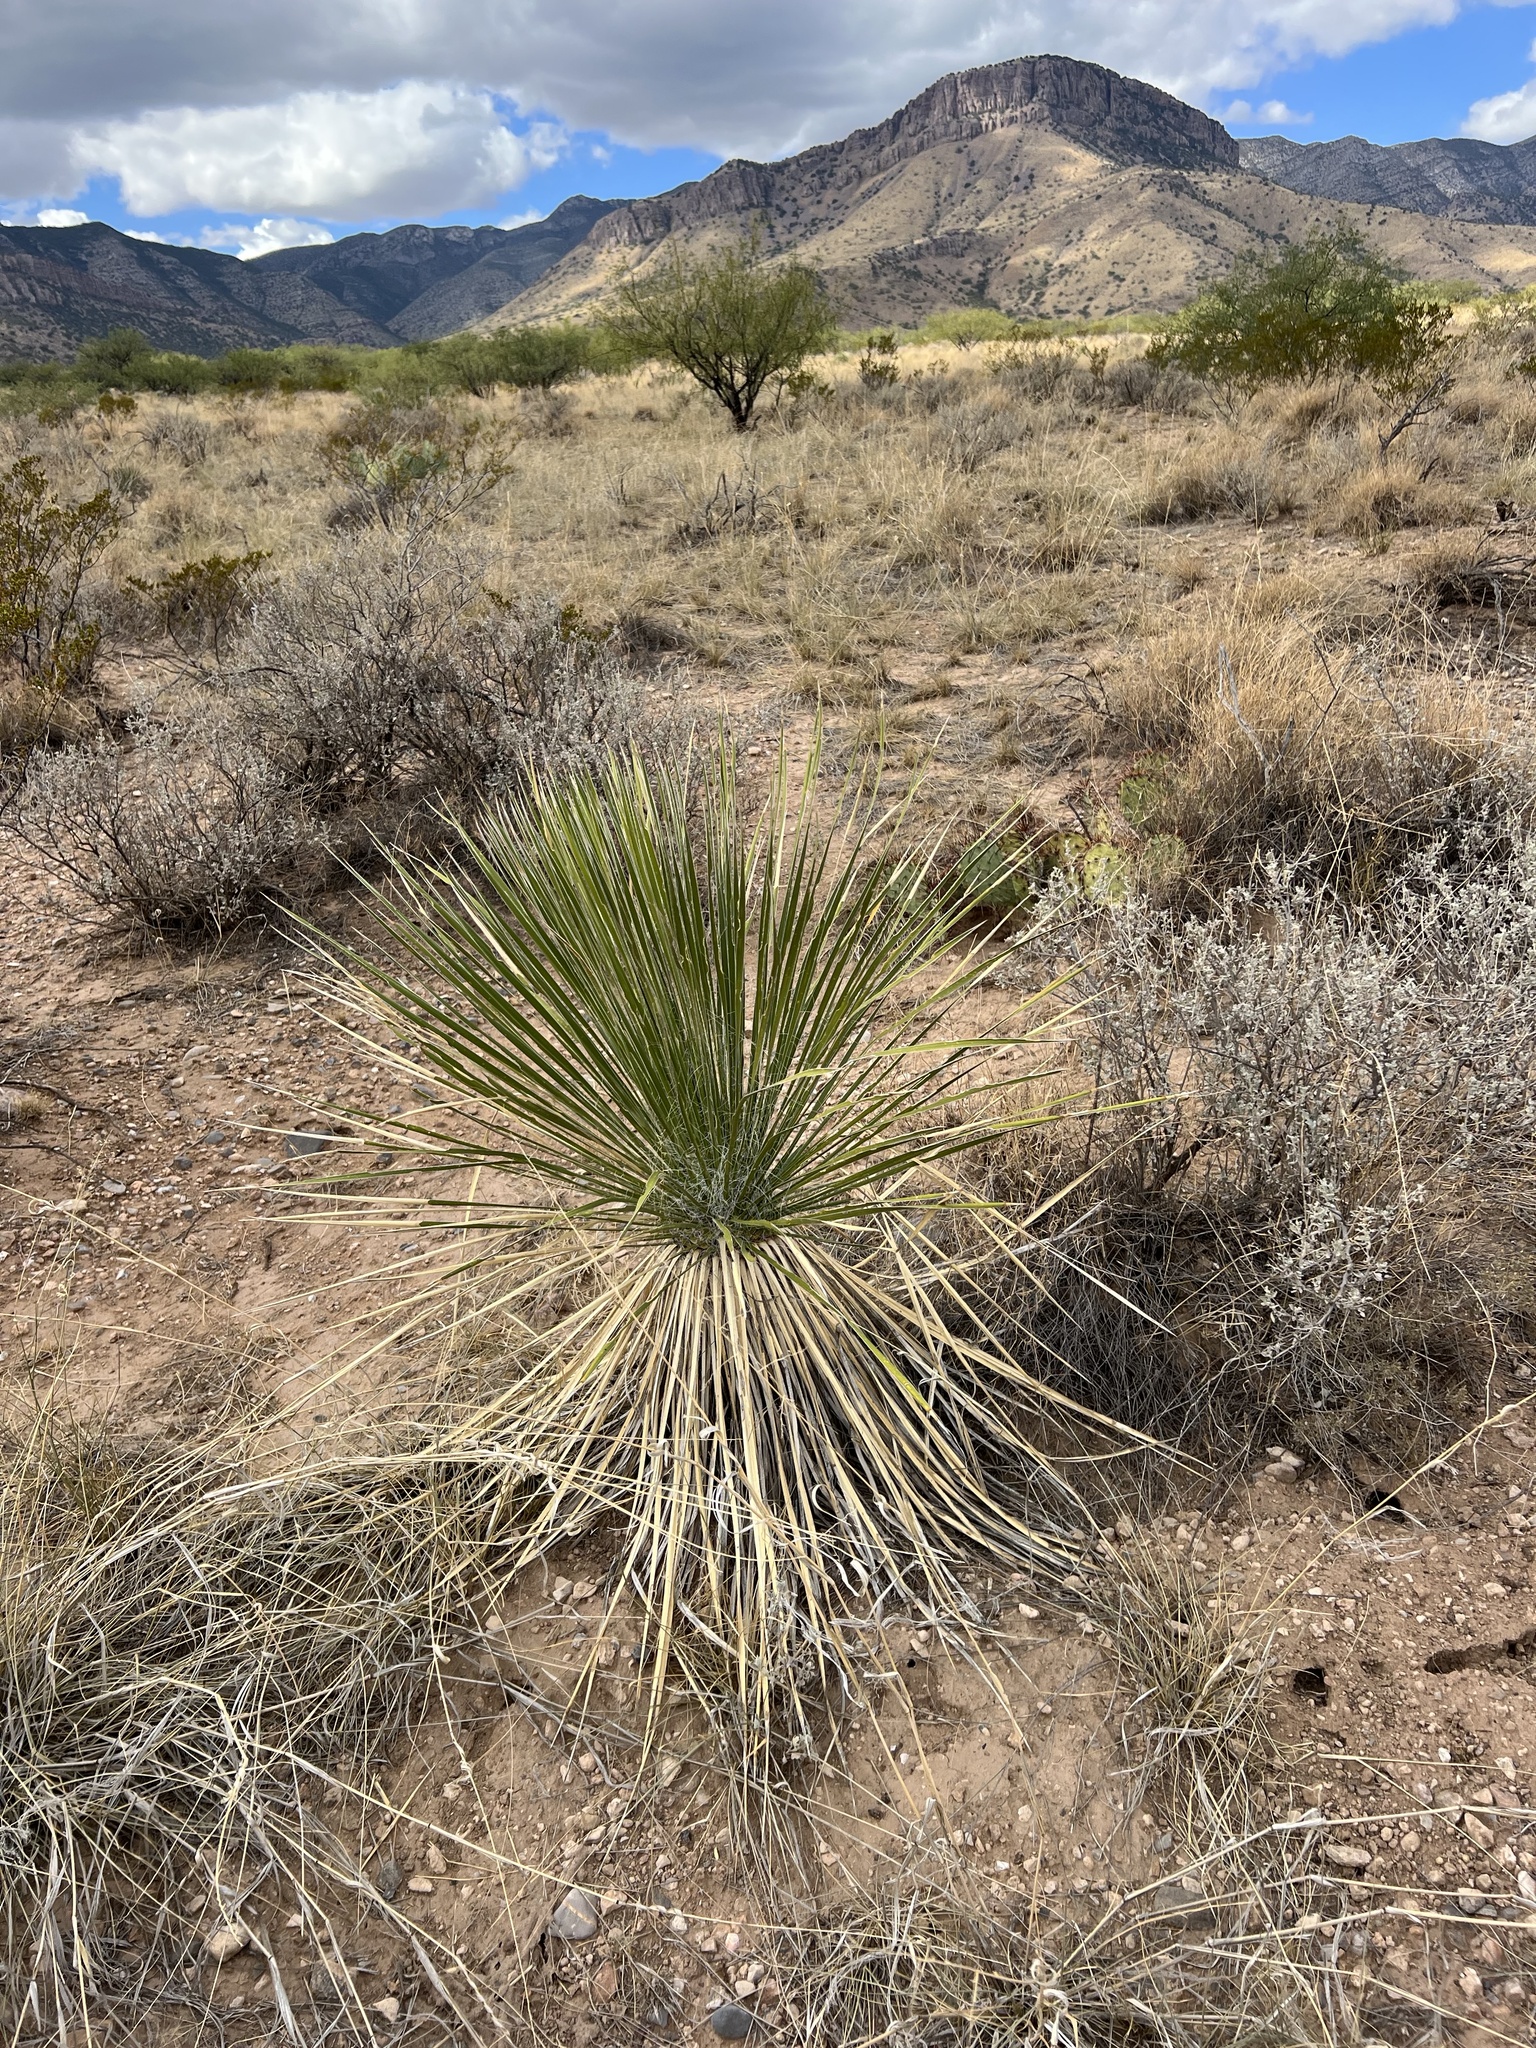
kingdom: Plantae
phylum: Tracheophyta
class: Liliopsida
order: Asparagales
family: Asparagaceae
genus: Yucca
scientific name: Yucca elata
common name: Palmella
